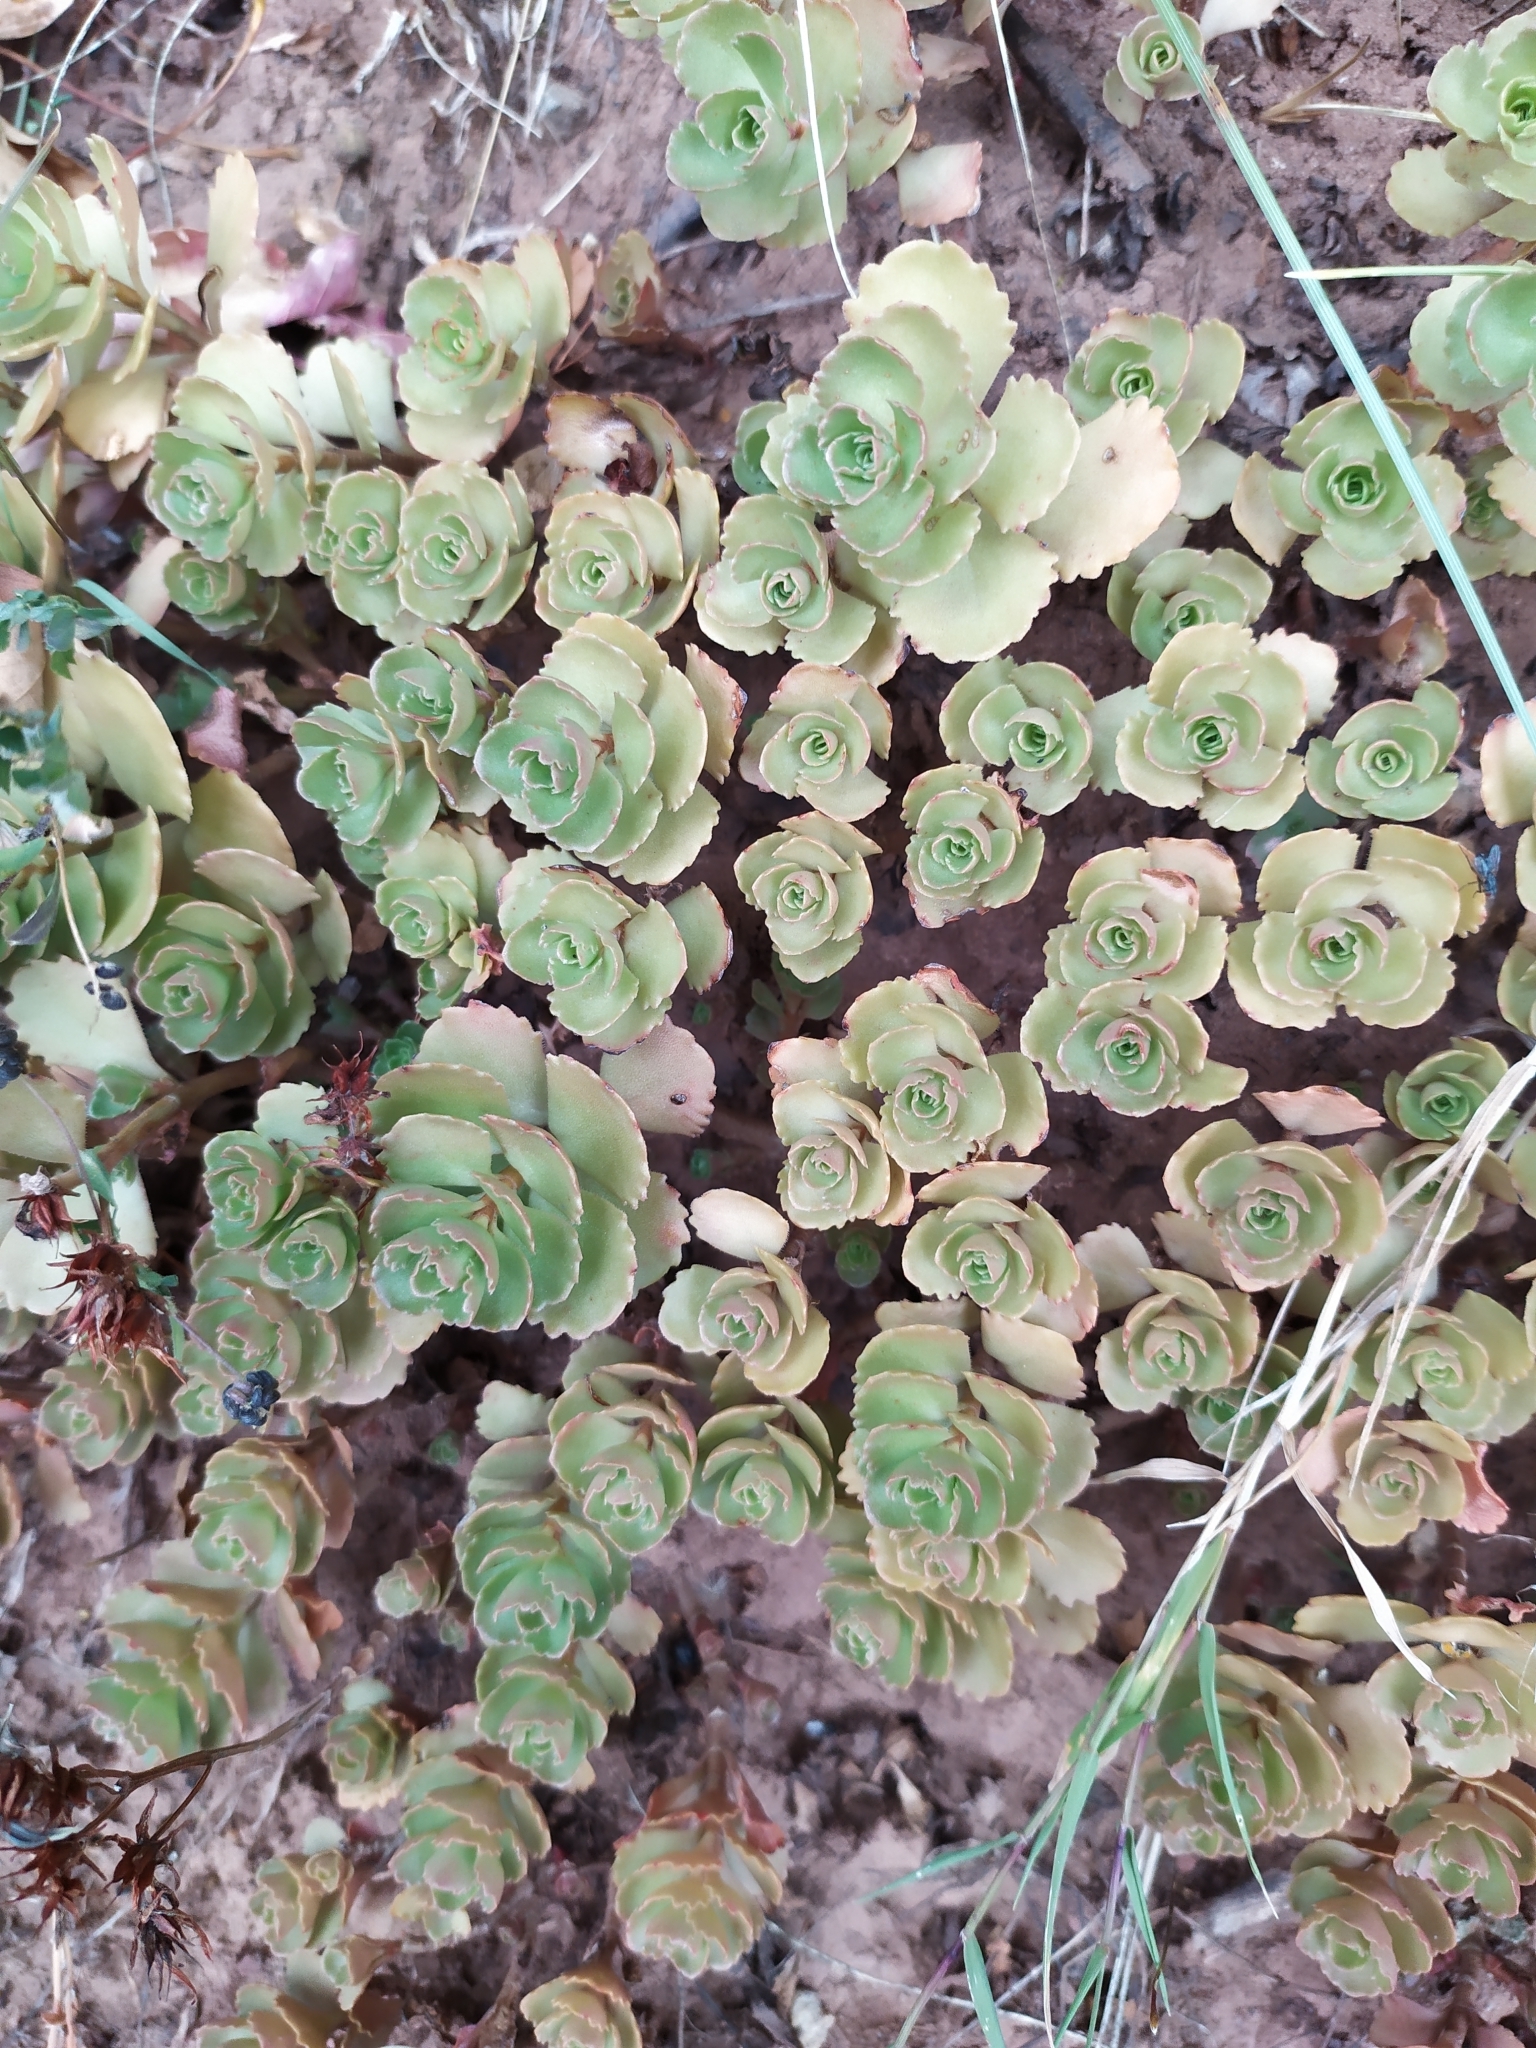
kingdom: Plantae
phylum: Tracheophyta
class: Magnoliopsida
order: Saxifragales
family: Crassulaceae
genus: Phedimus
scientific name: Phedimus spurius
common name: Caucasian stonecrop
